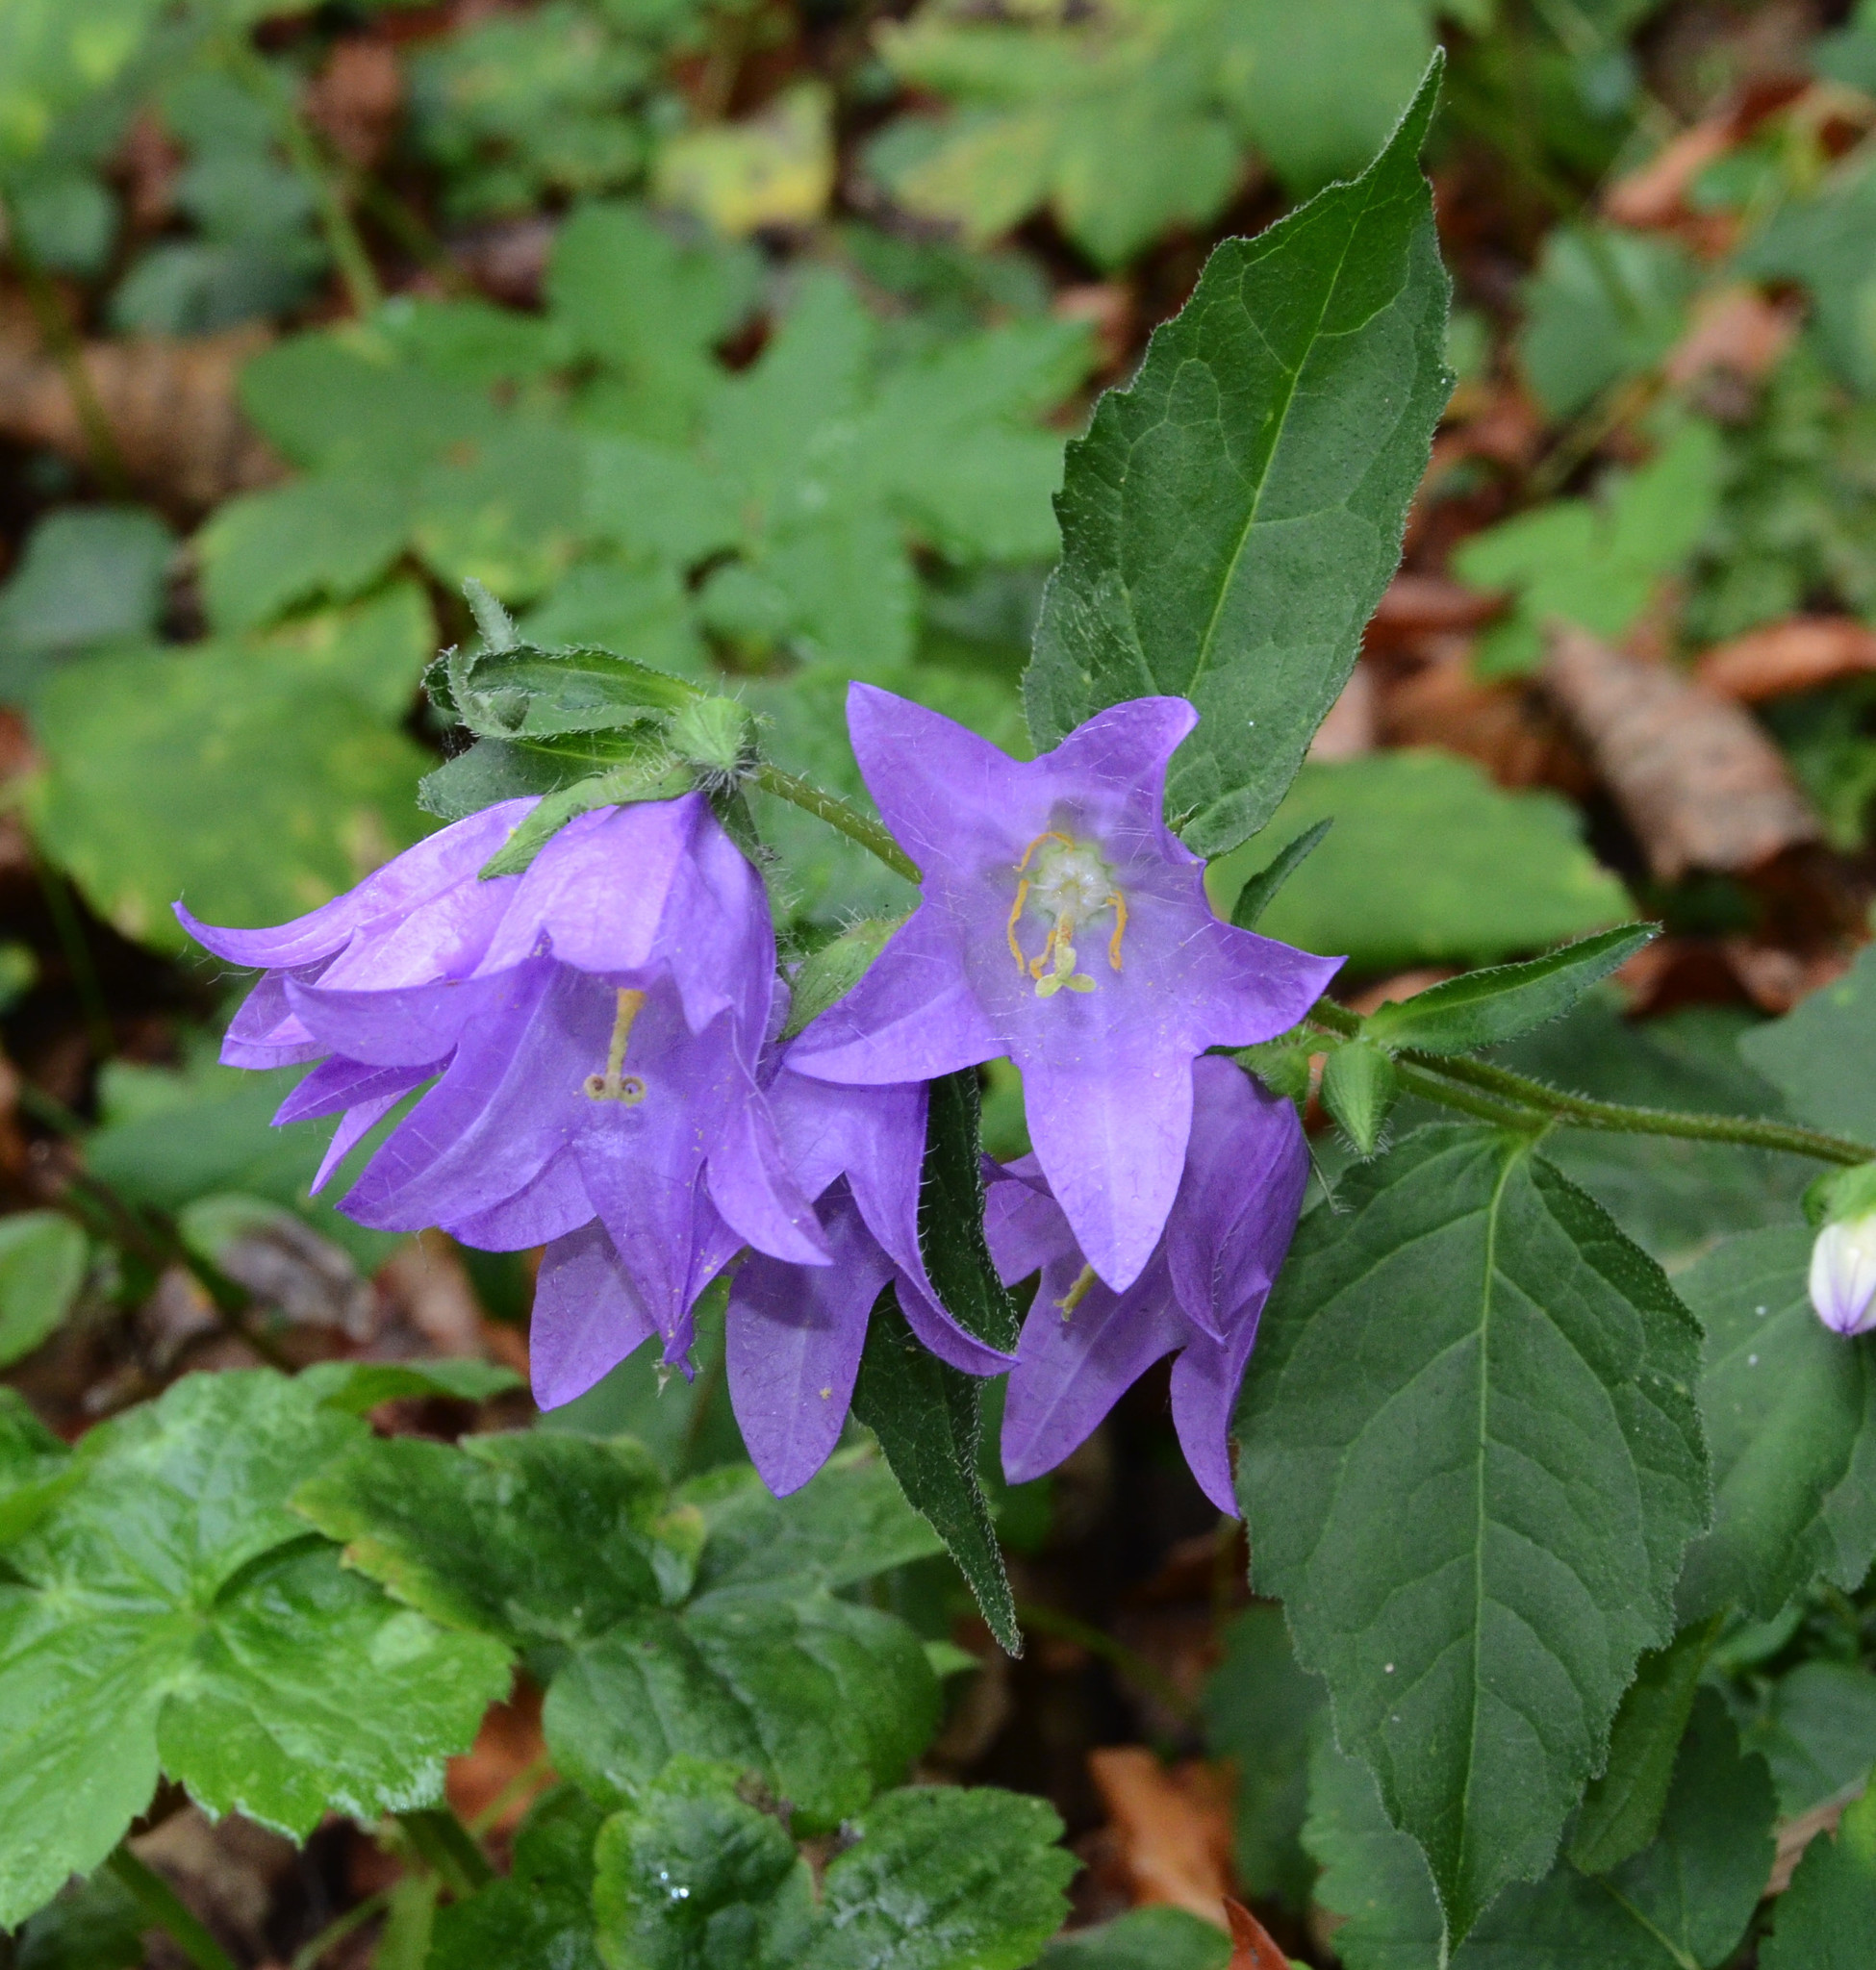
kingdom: Plantae
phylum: Tracheophyta
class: Magnoliopsida
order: Asterales
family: Campanulaceae
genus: Campanula
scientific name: Campanula trachelium
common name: Nettle-leaved bellflower
